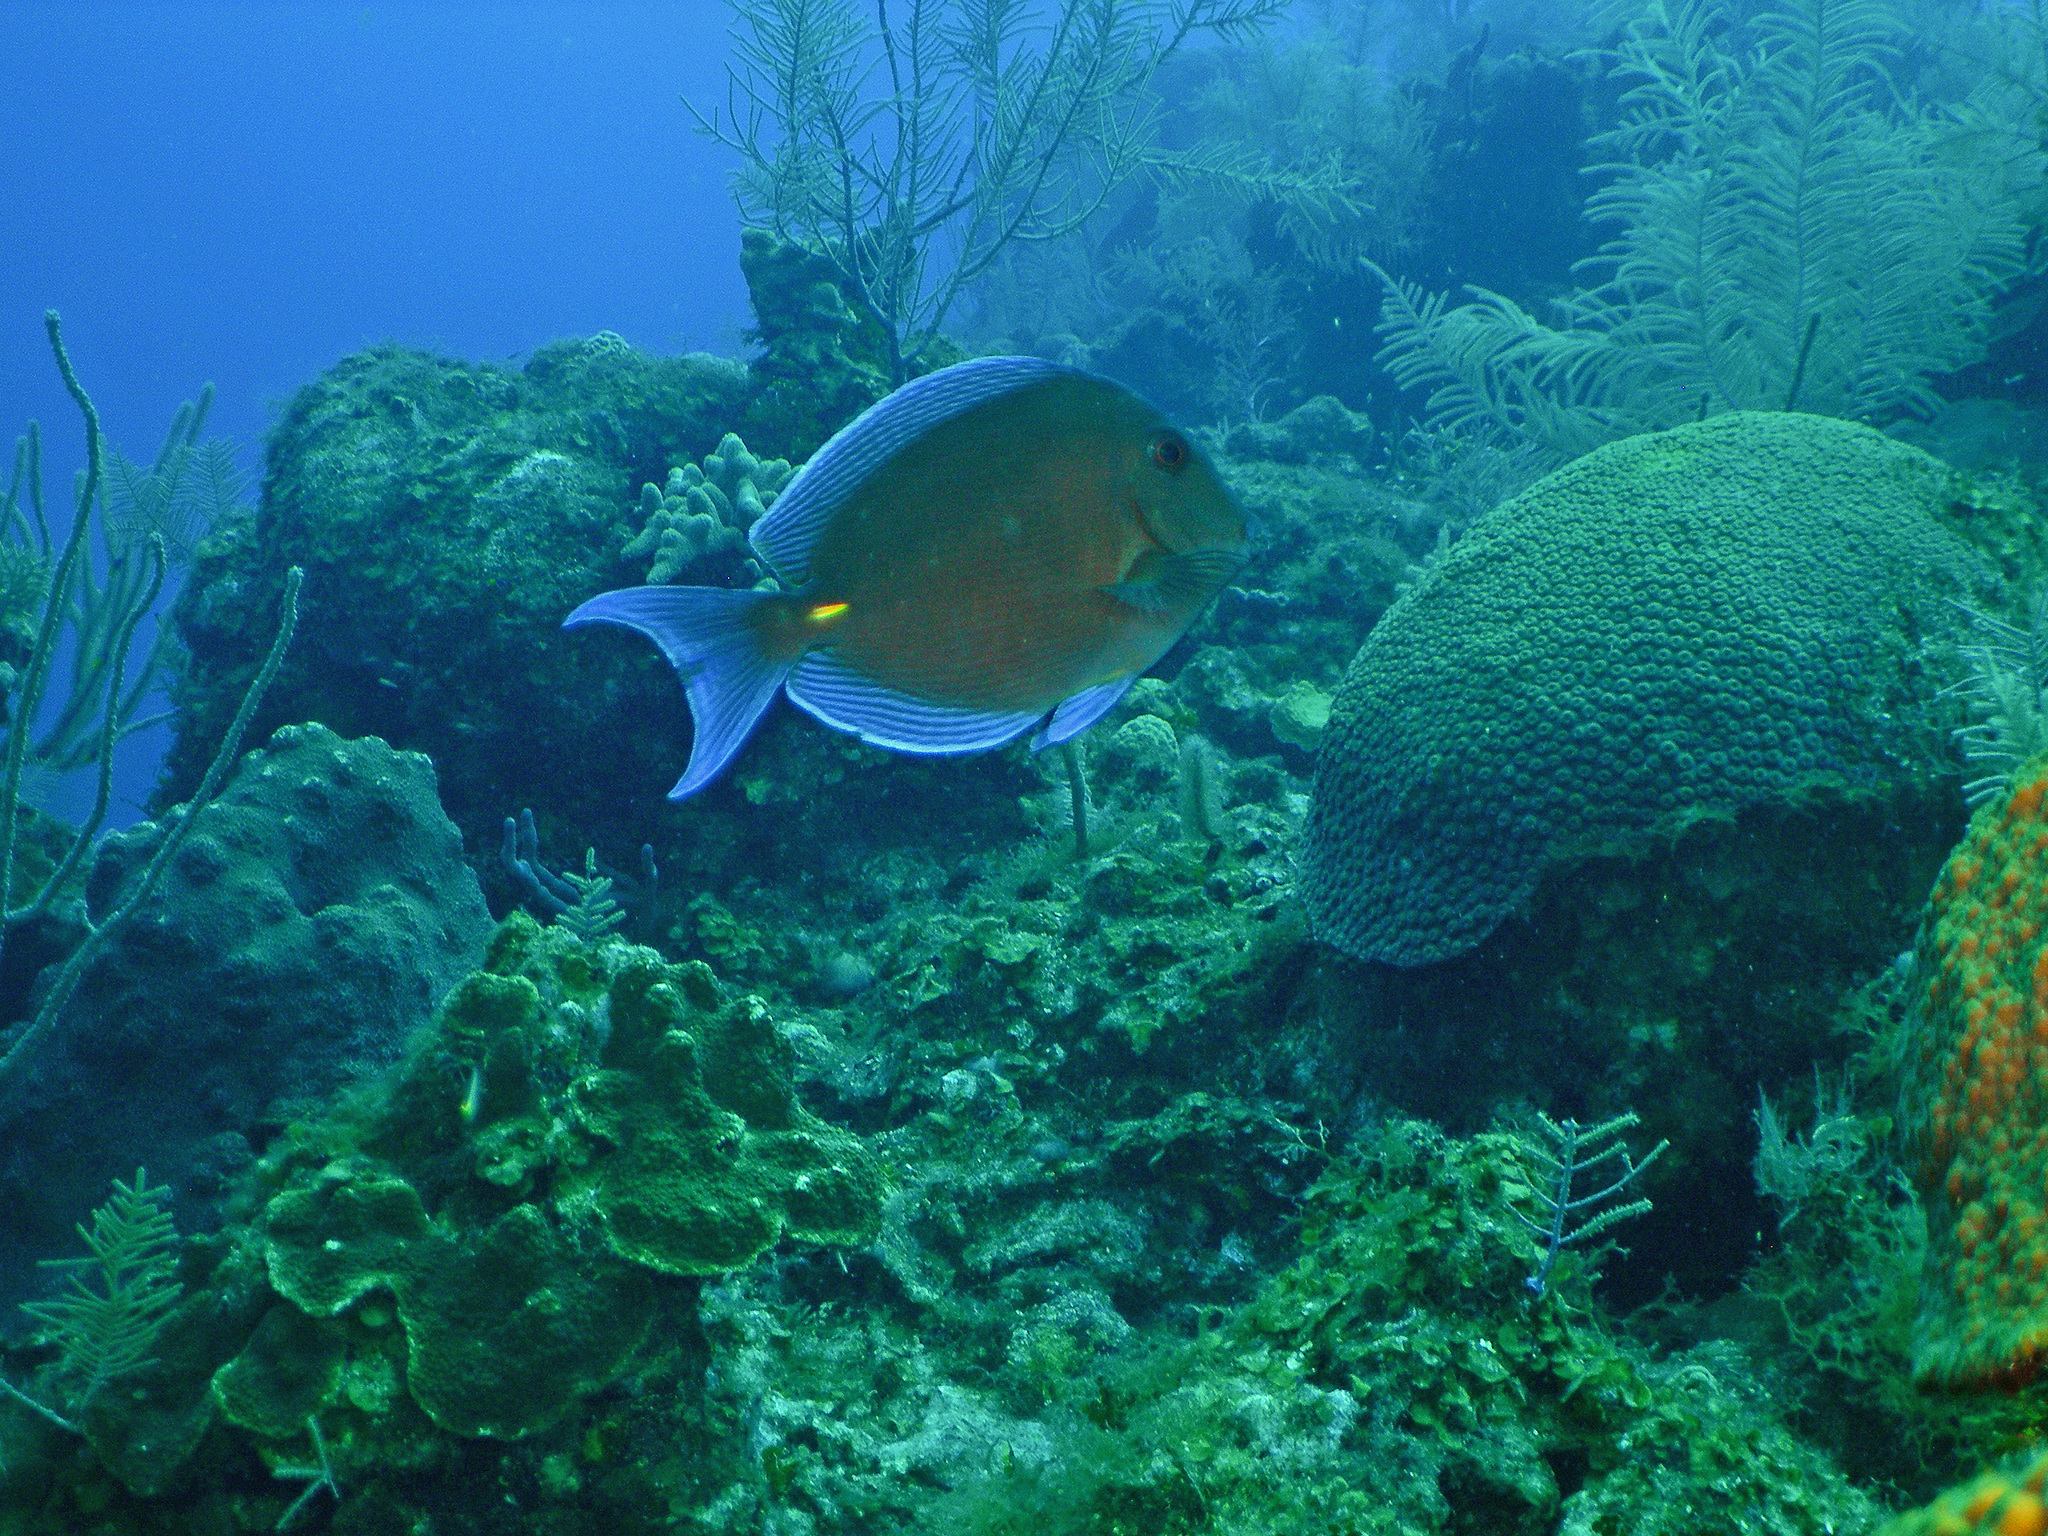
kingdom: Animalia
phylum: Chordata
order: Perciformes
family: Acanthuridae
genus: Acanthurus
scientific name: Acanthurus coeruleus
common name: Blue tang
